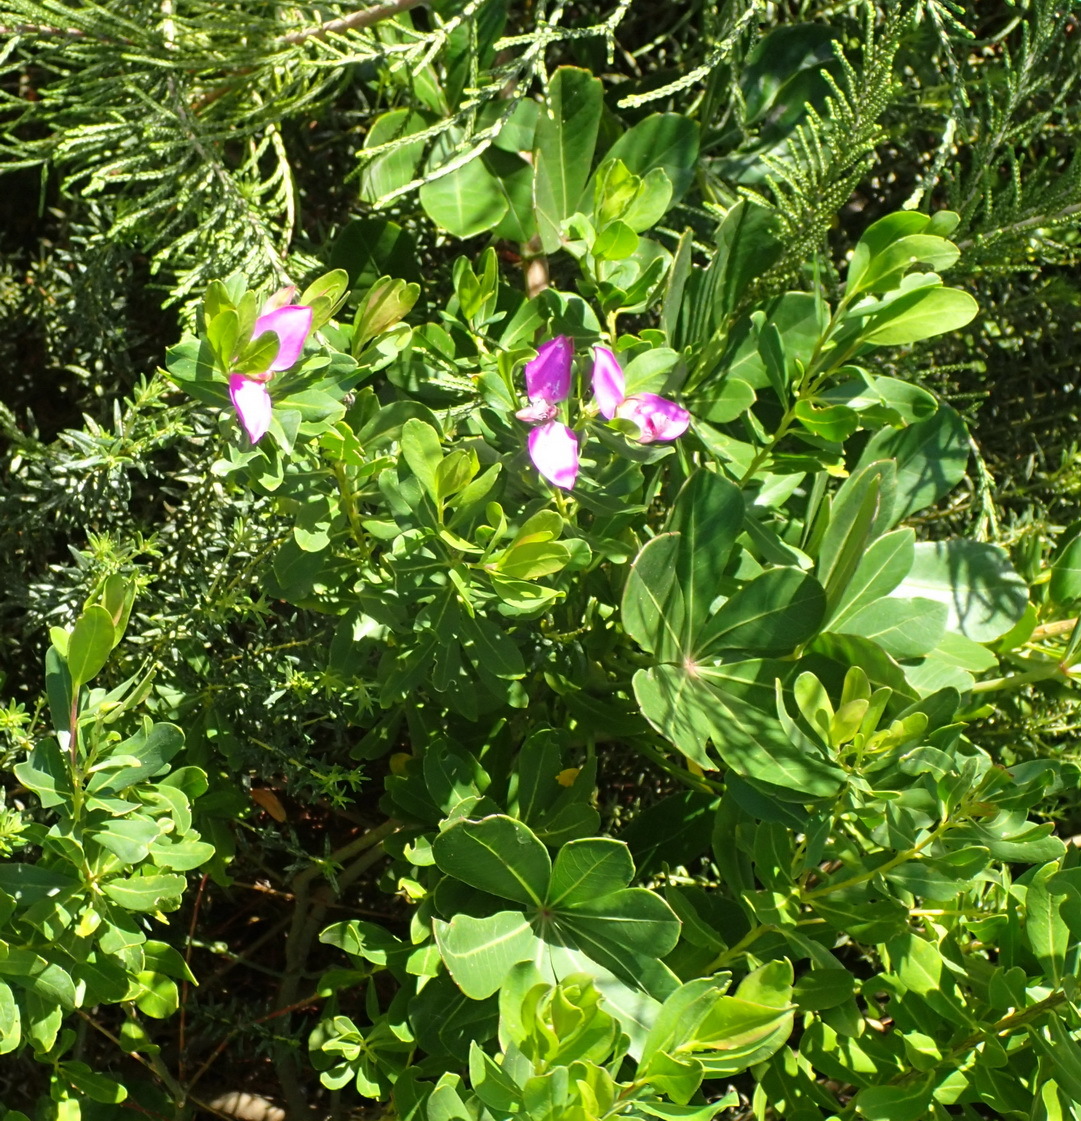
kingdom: Plantae
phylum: Tracheophyta
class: Magnoliopsida
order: Fabales
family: Polygalaceae
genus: Polygala
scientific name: Polygala myrtifolia
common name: Myrtle-leaf milkwort
